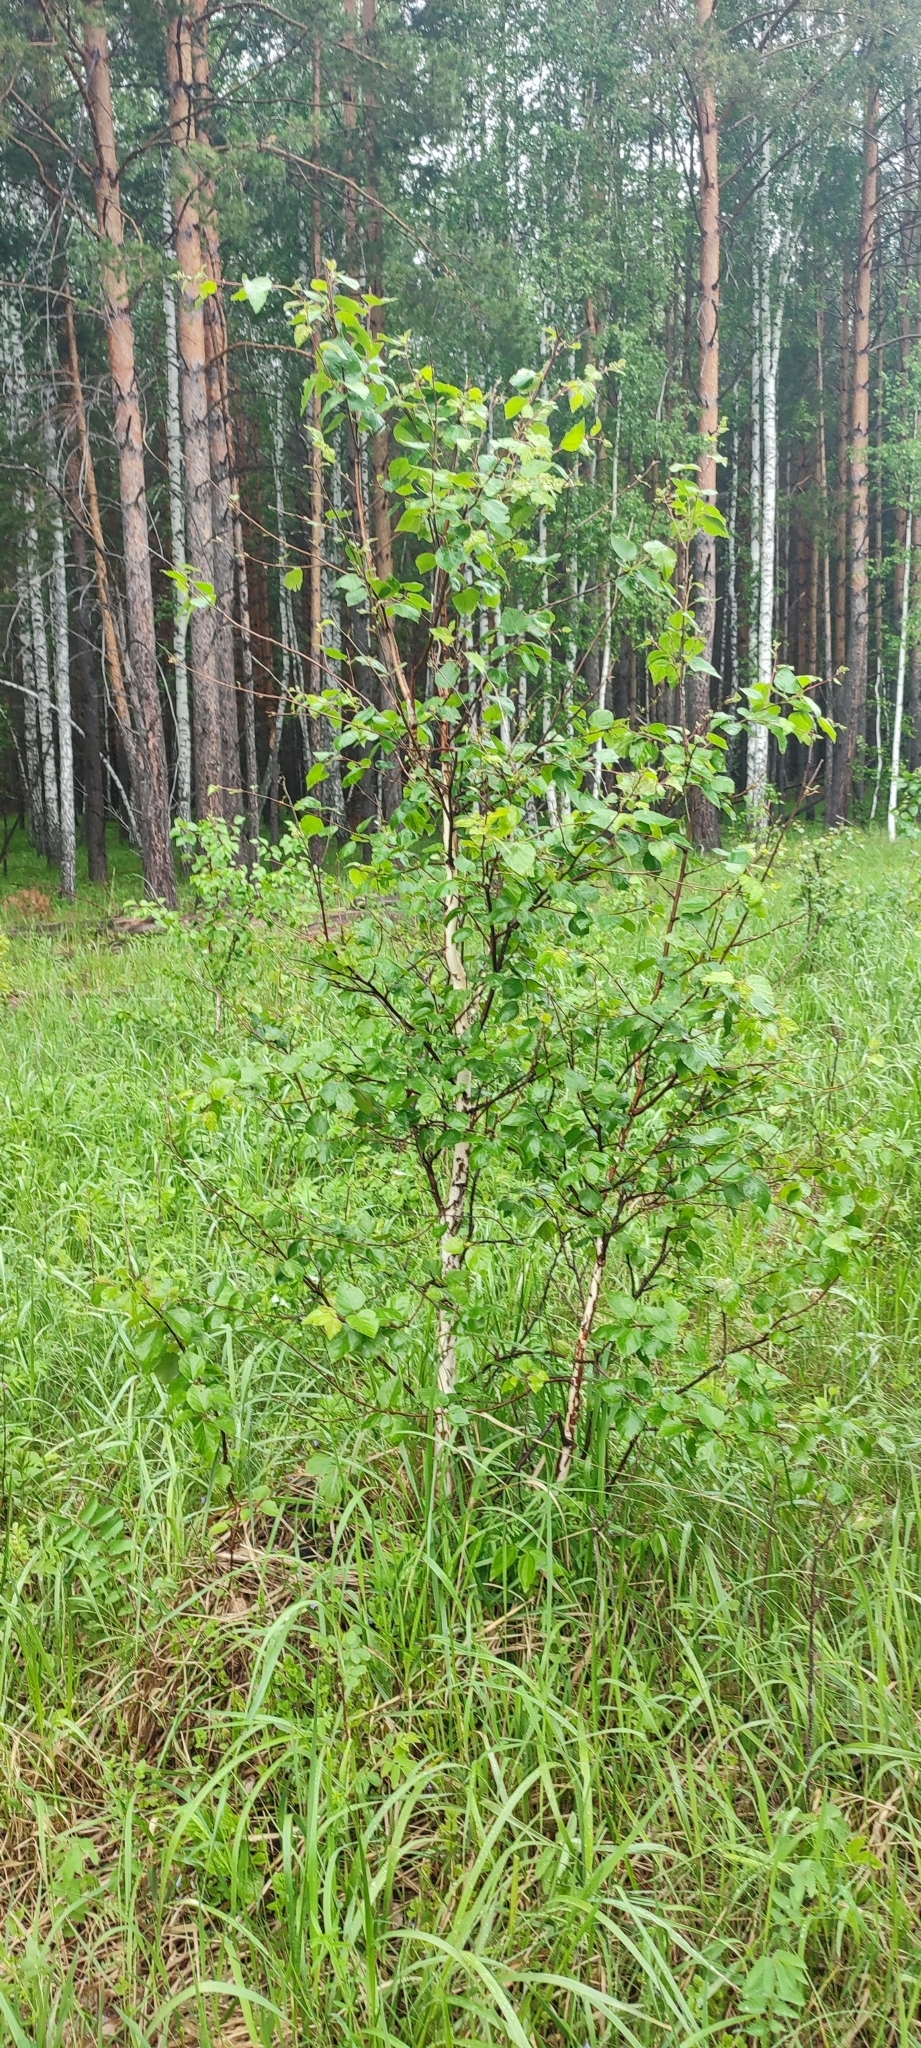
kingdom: Plantae
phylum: Tracheophyta
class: Magnoliopsida
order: Fagales
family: Betulaceae
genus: Betula
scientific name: Betula pendula
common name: Silver birch
